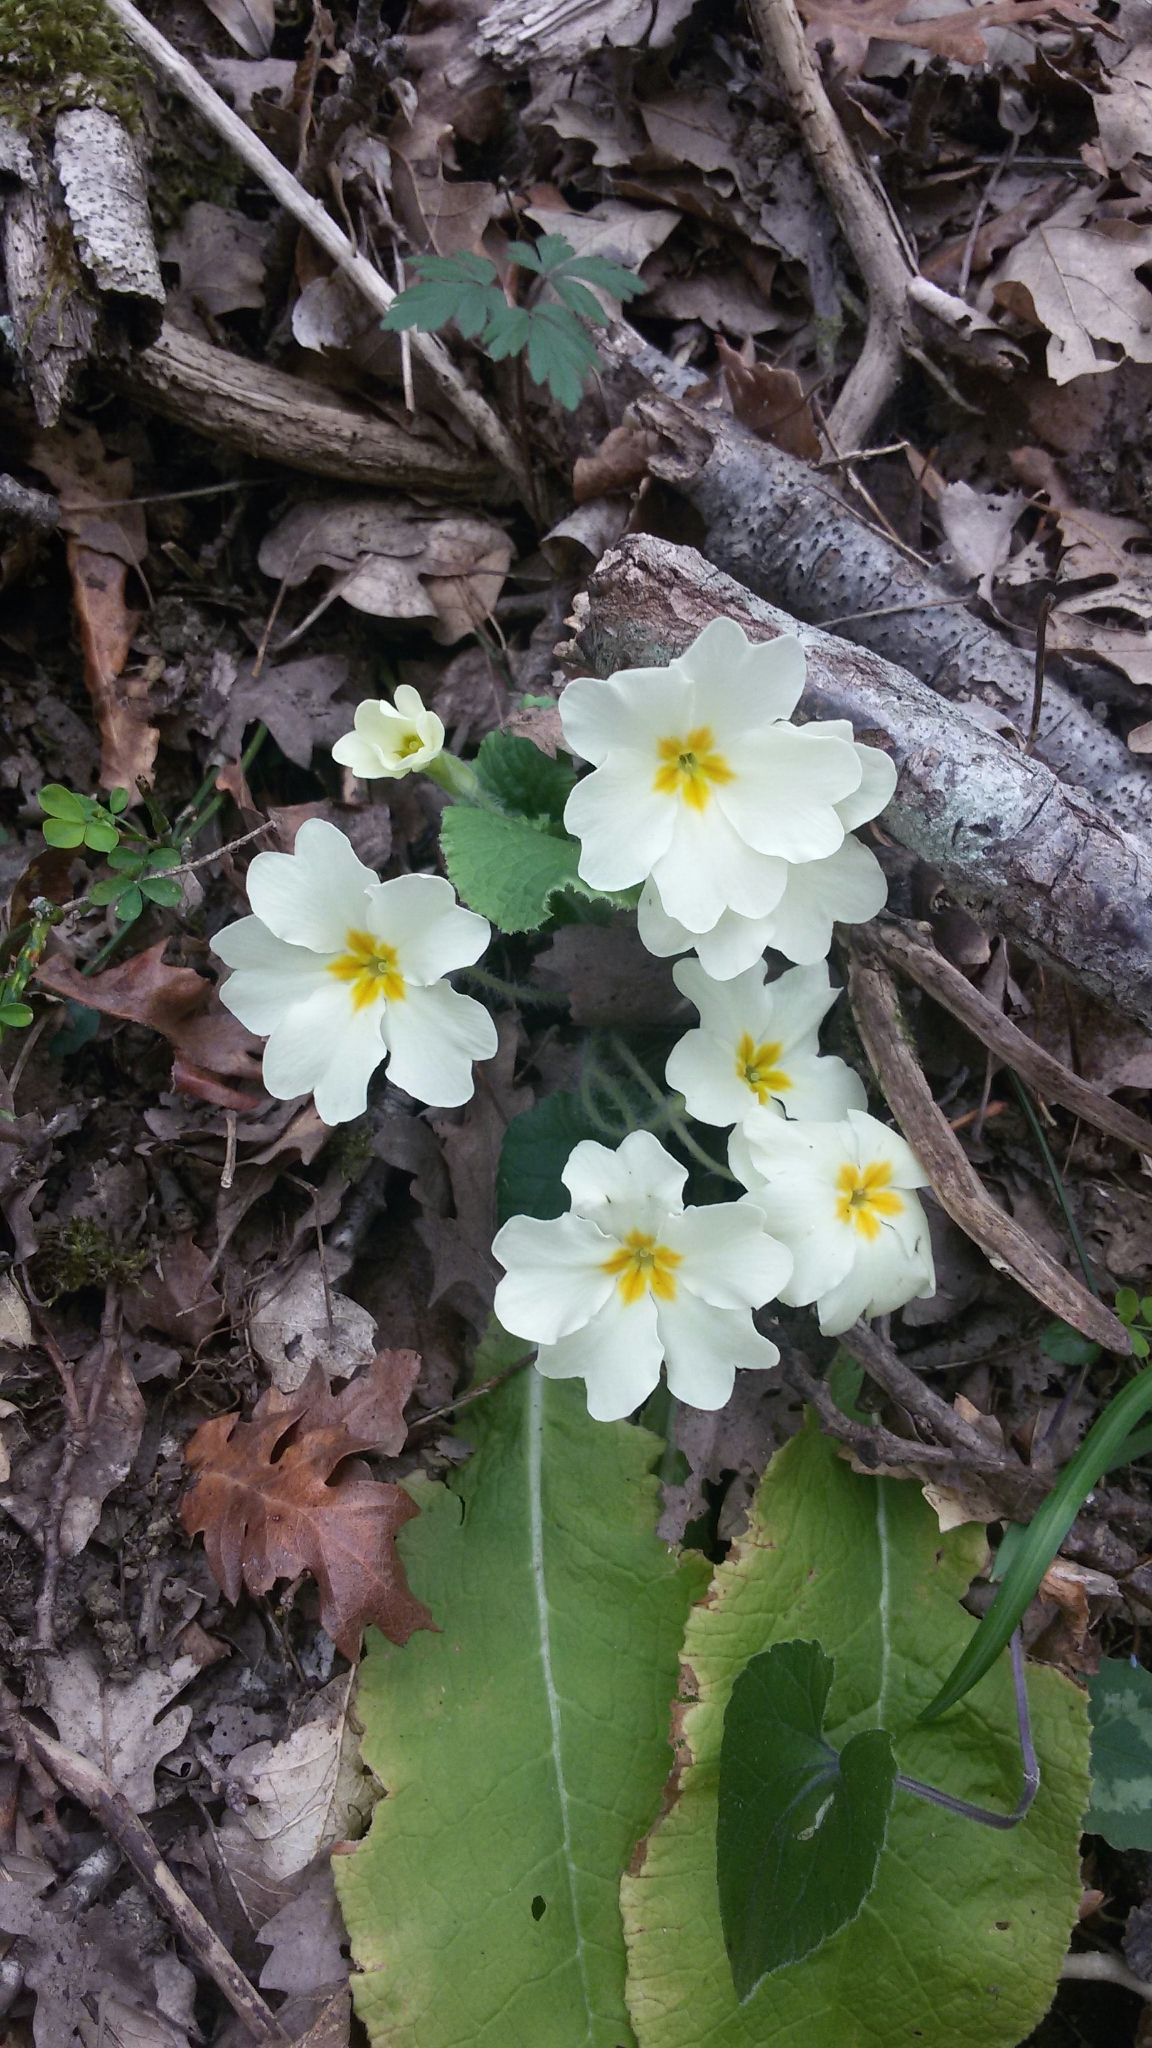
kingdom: Plantae
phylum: Tracheophyta
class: Magnoliopsida
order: Ericales
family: Primulaceae
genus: Primula
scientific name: Primula vulgaris
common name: Primrose
